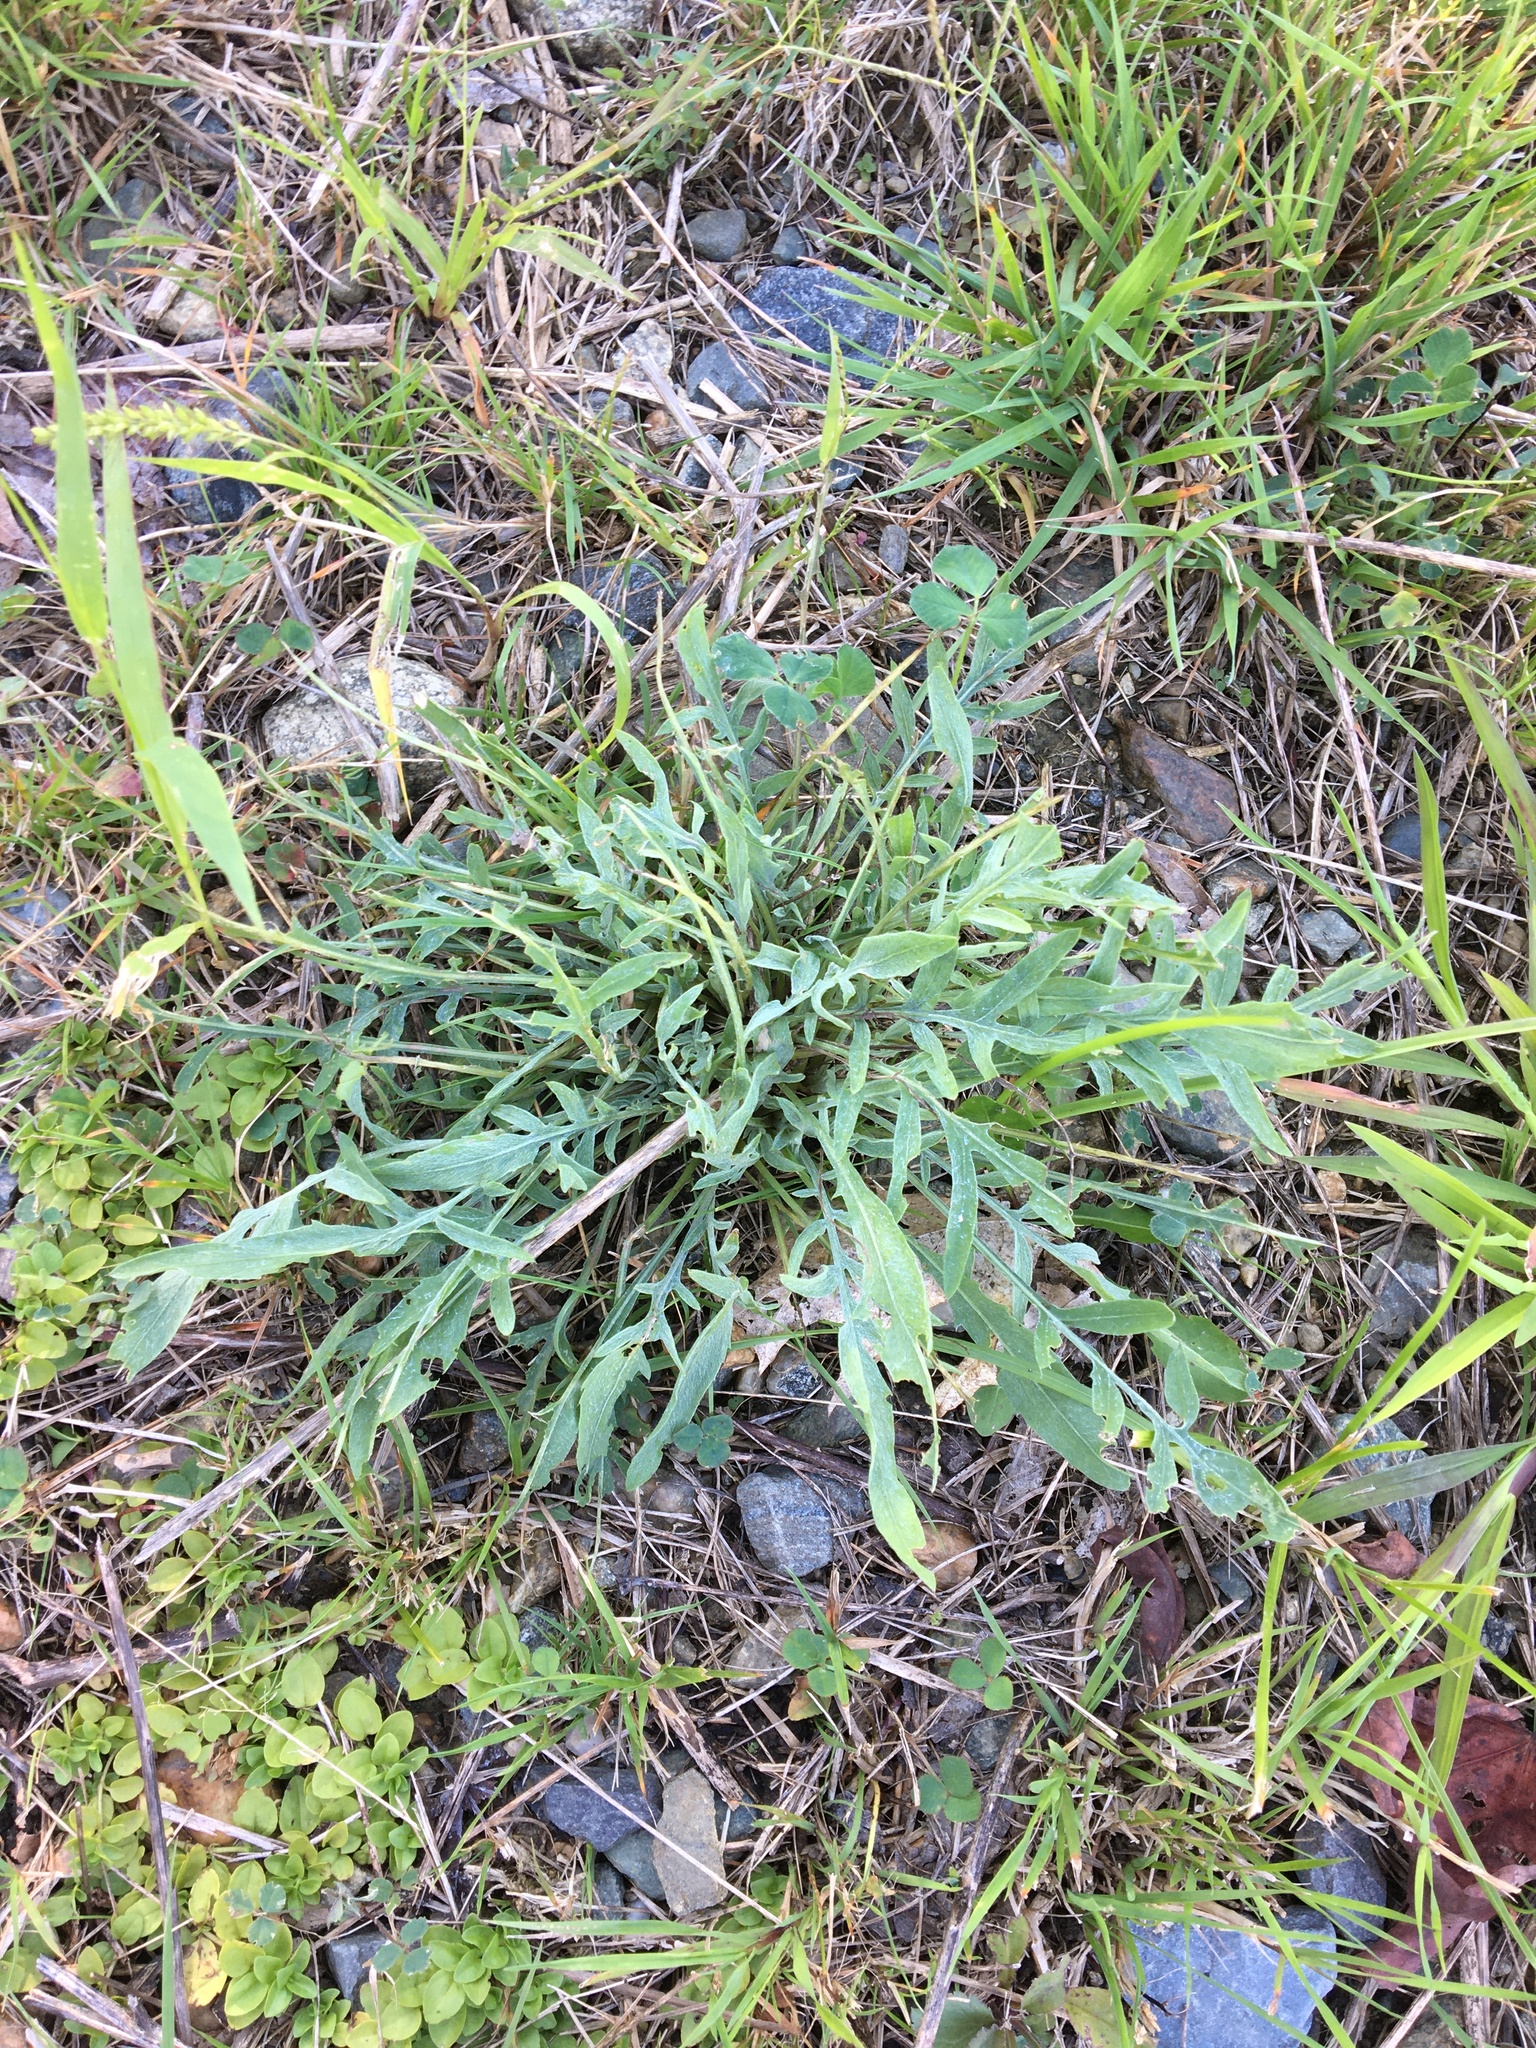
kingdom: Plantae
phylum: Tracheophyta
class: Magnoliopsida
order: Asterales
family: Asteraceae
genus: Centaurea
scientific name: Centaurea stoebe
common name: Spotted knapweed
